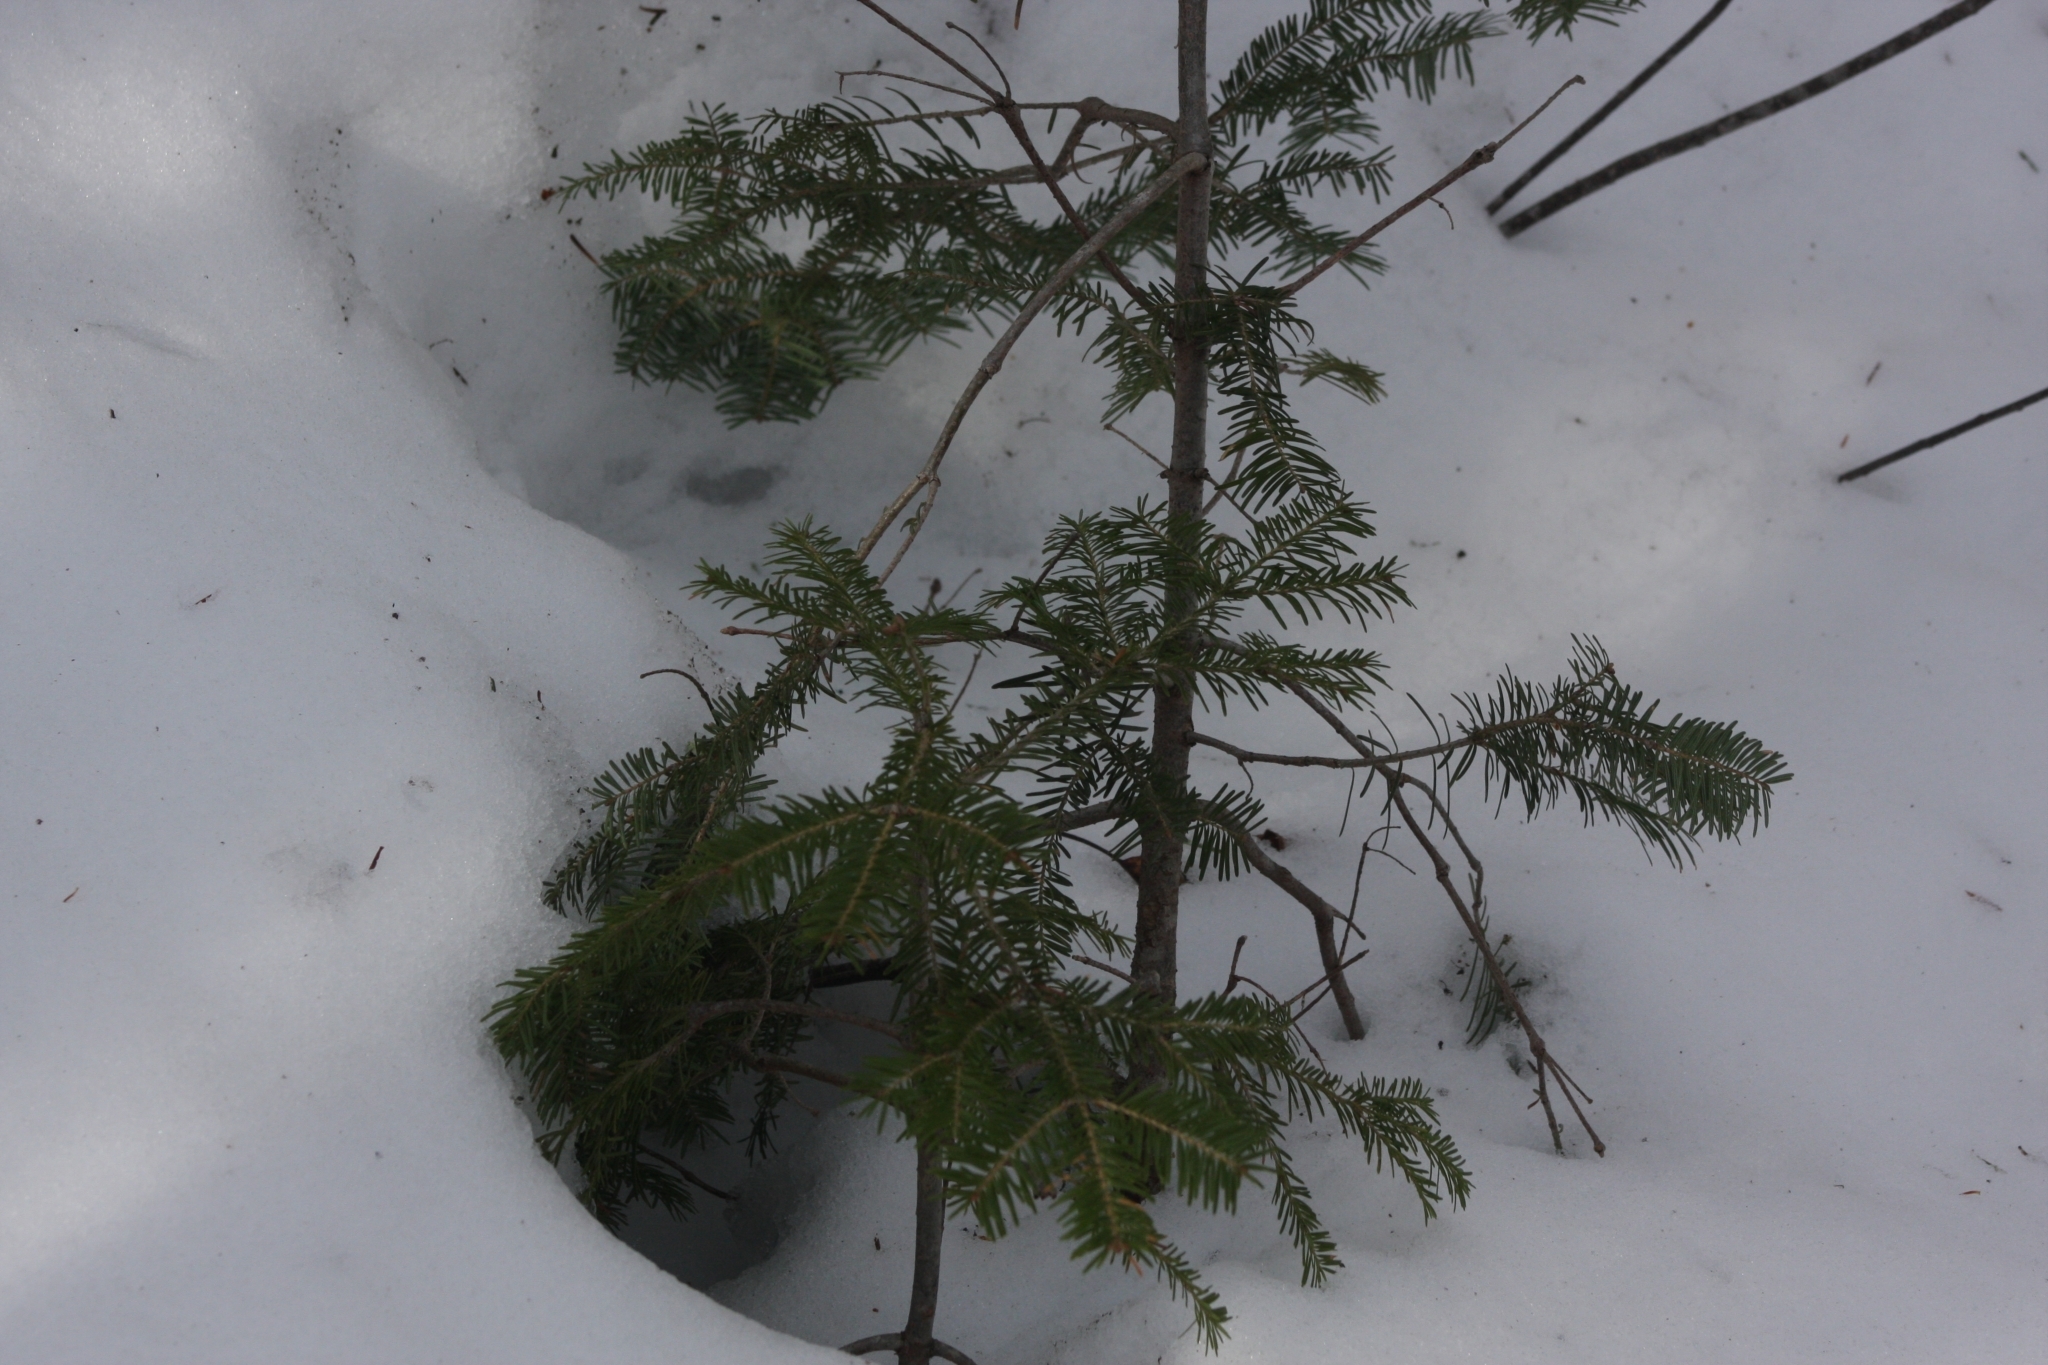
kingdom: Plantae
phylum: Tracheophyta
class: Pinopsida
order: Pinales
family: Pinaceae
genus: Abies
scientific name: Abies balsamea
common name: Balsam fir
